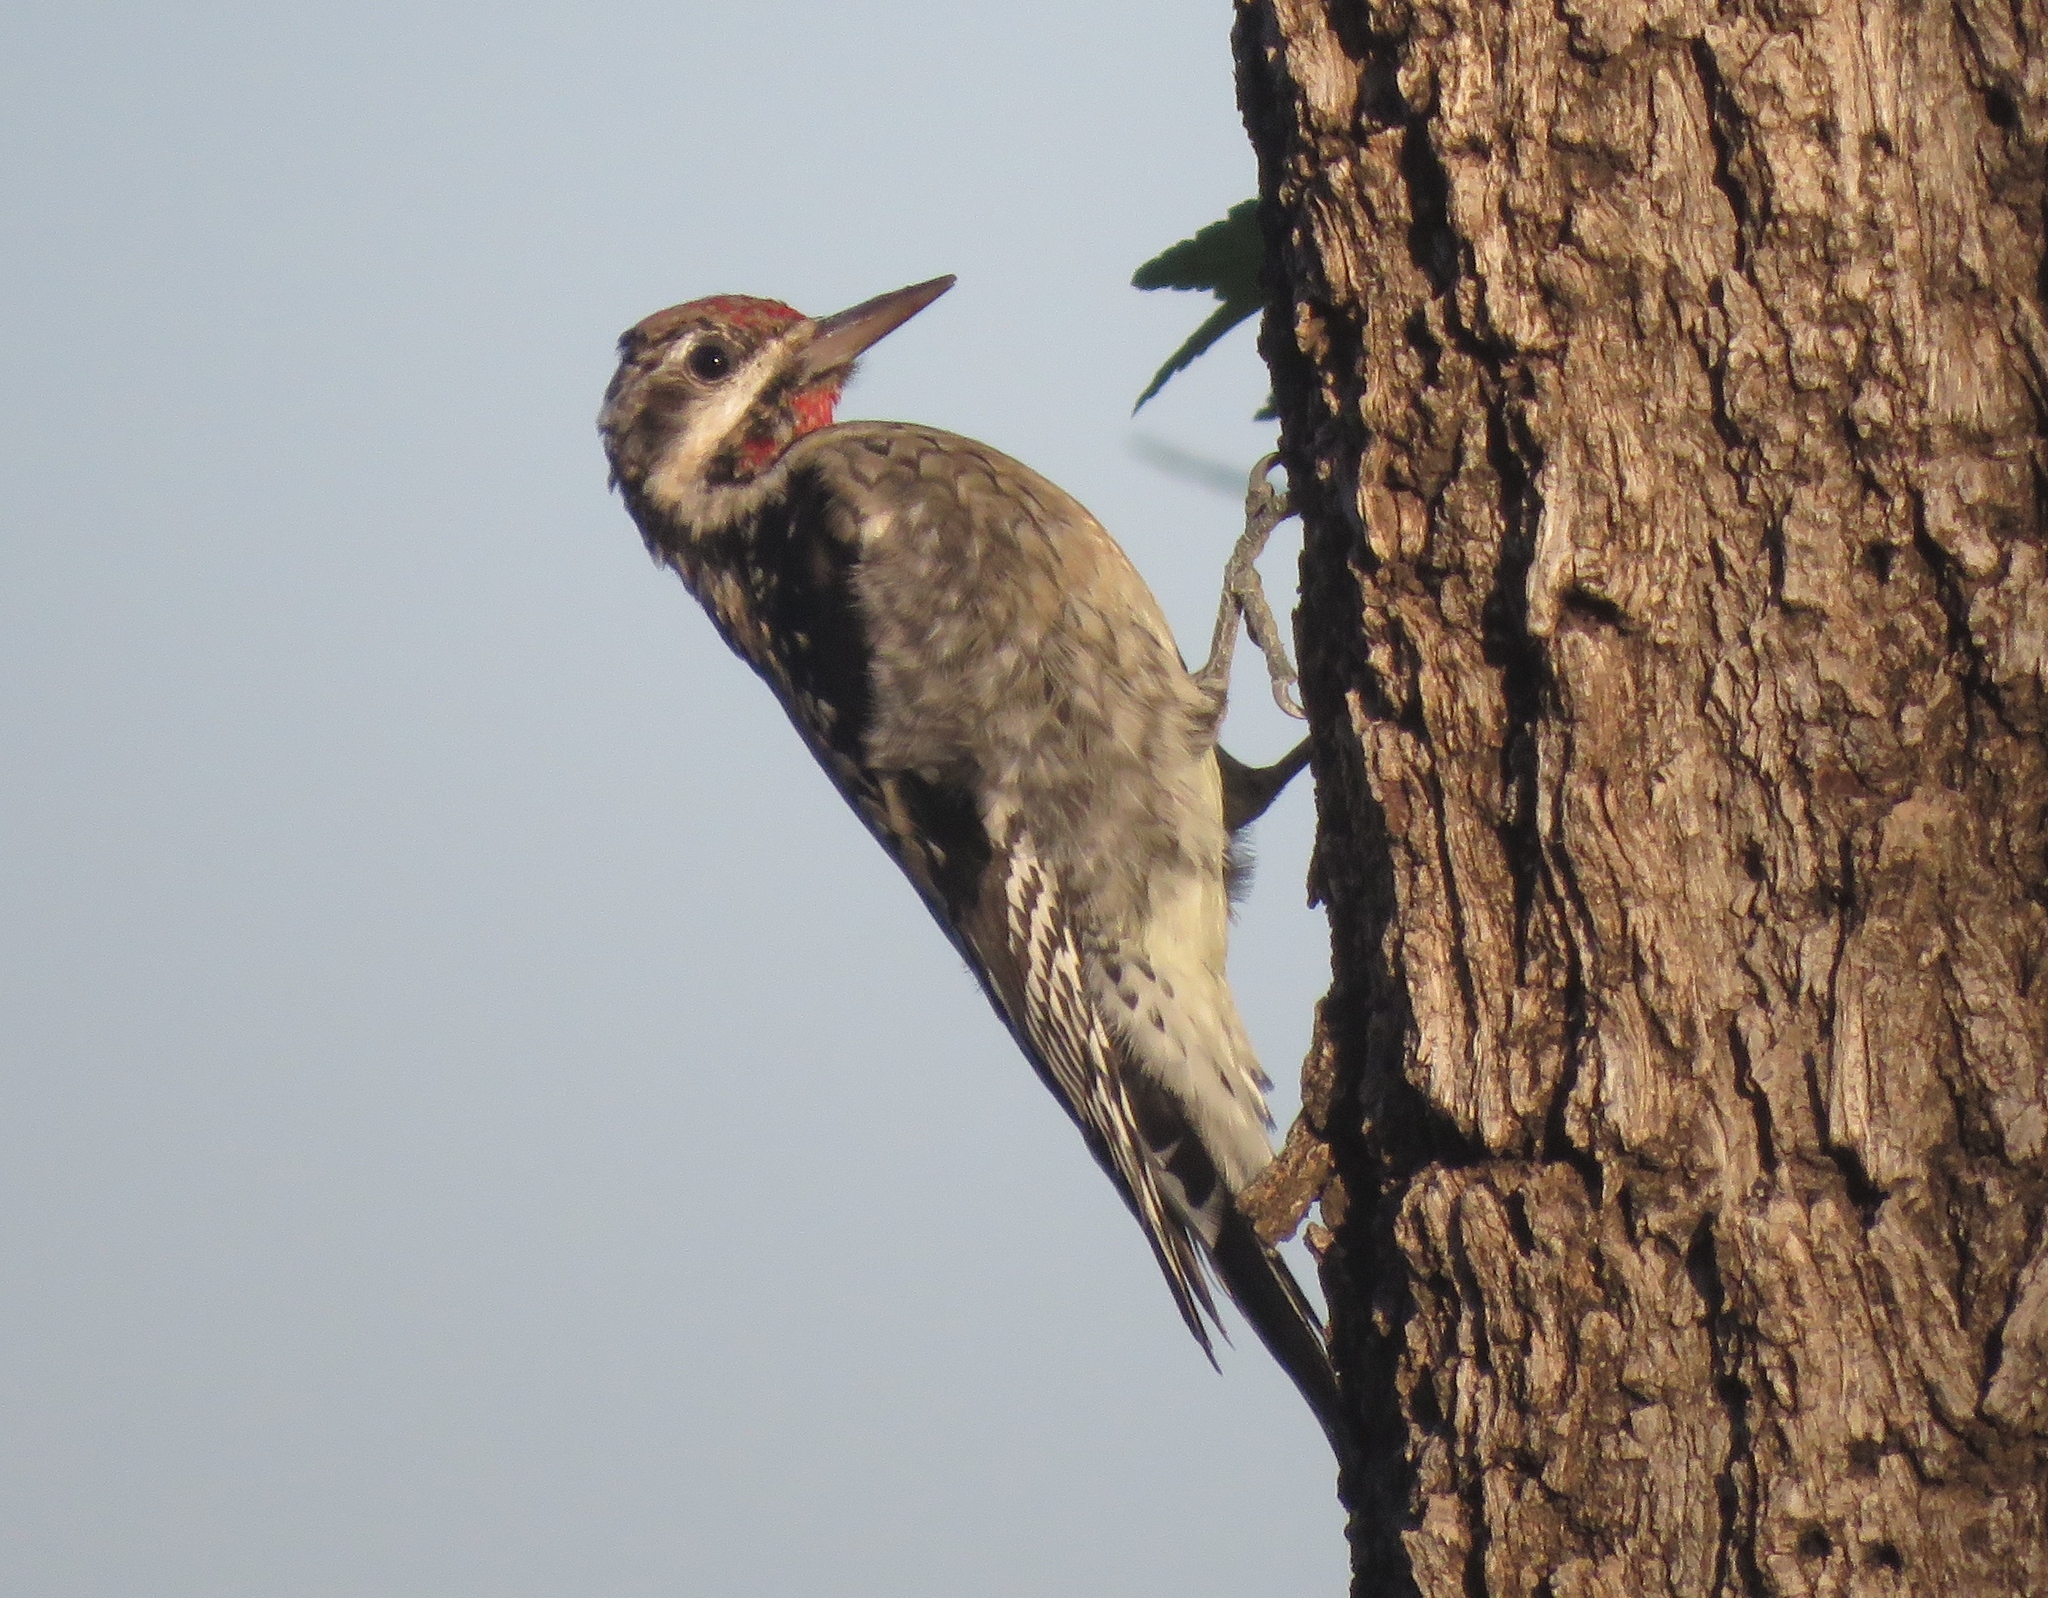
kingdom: Animalia
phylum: Chordata
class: Aves
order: Piciformes
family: Picidae
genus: Sphyrapicus
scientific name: Sphyrapicus varius
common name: Yellow-bellied sapsucker
